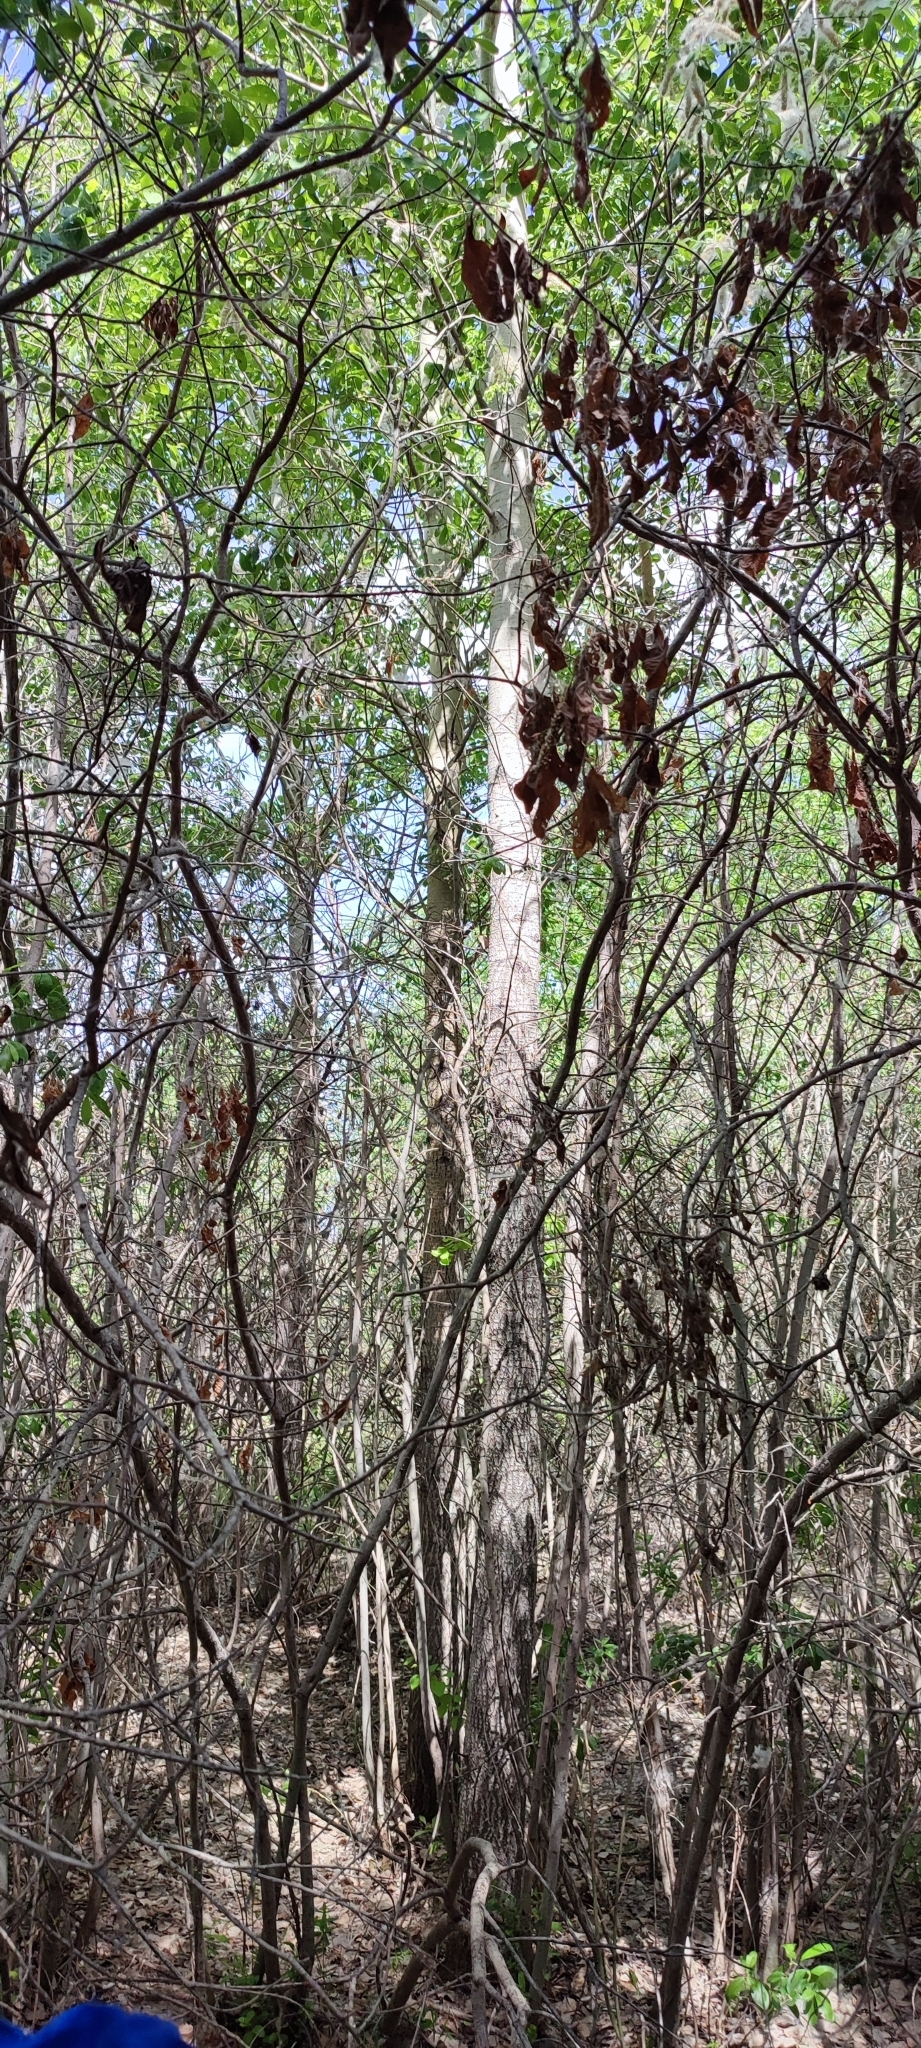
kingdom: Plantae
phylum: Tracheophyta
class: Magnoliopsida
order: Malpighiales
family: Salicaceae
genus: Populus
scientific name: Populus tremula
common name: European aspen
